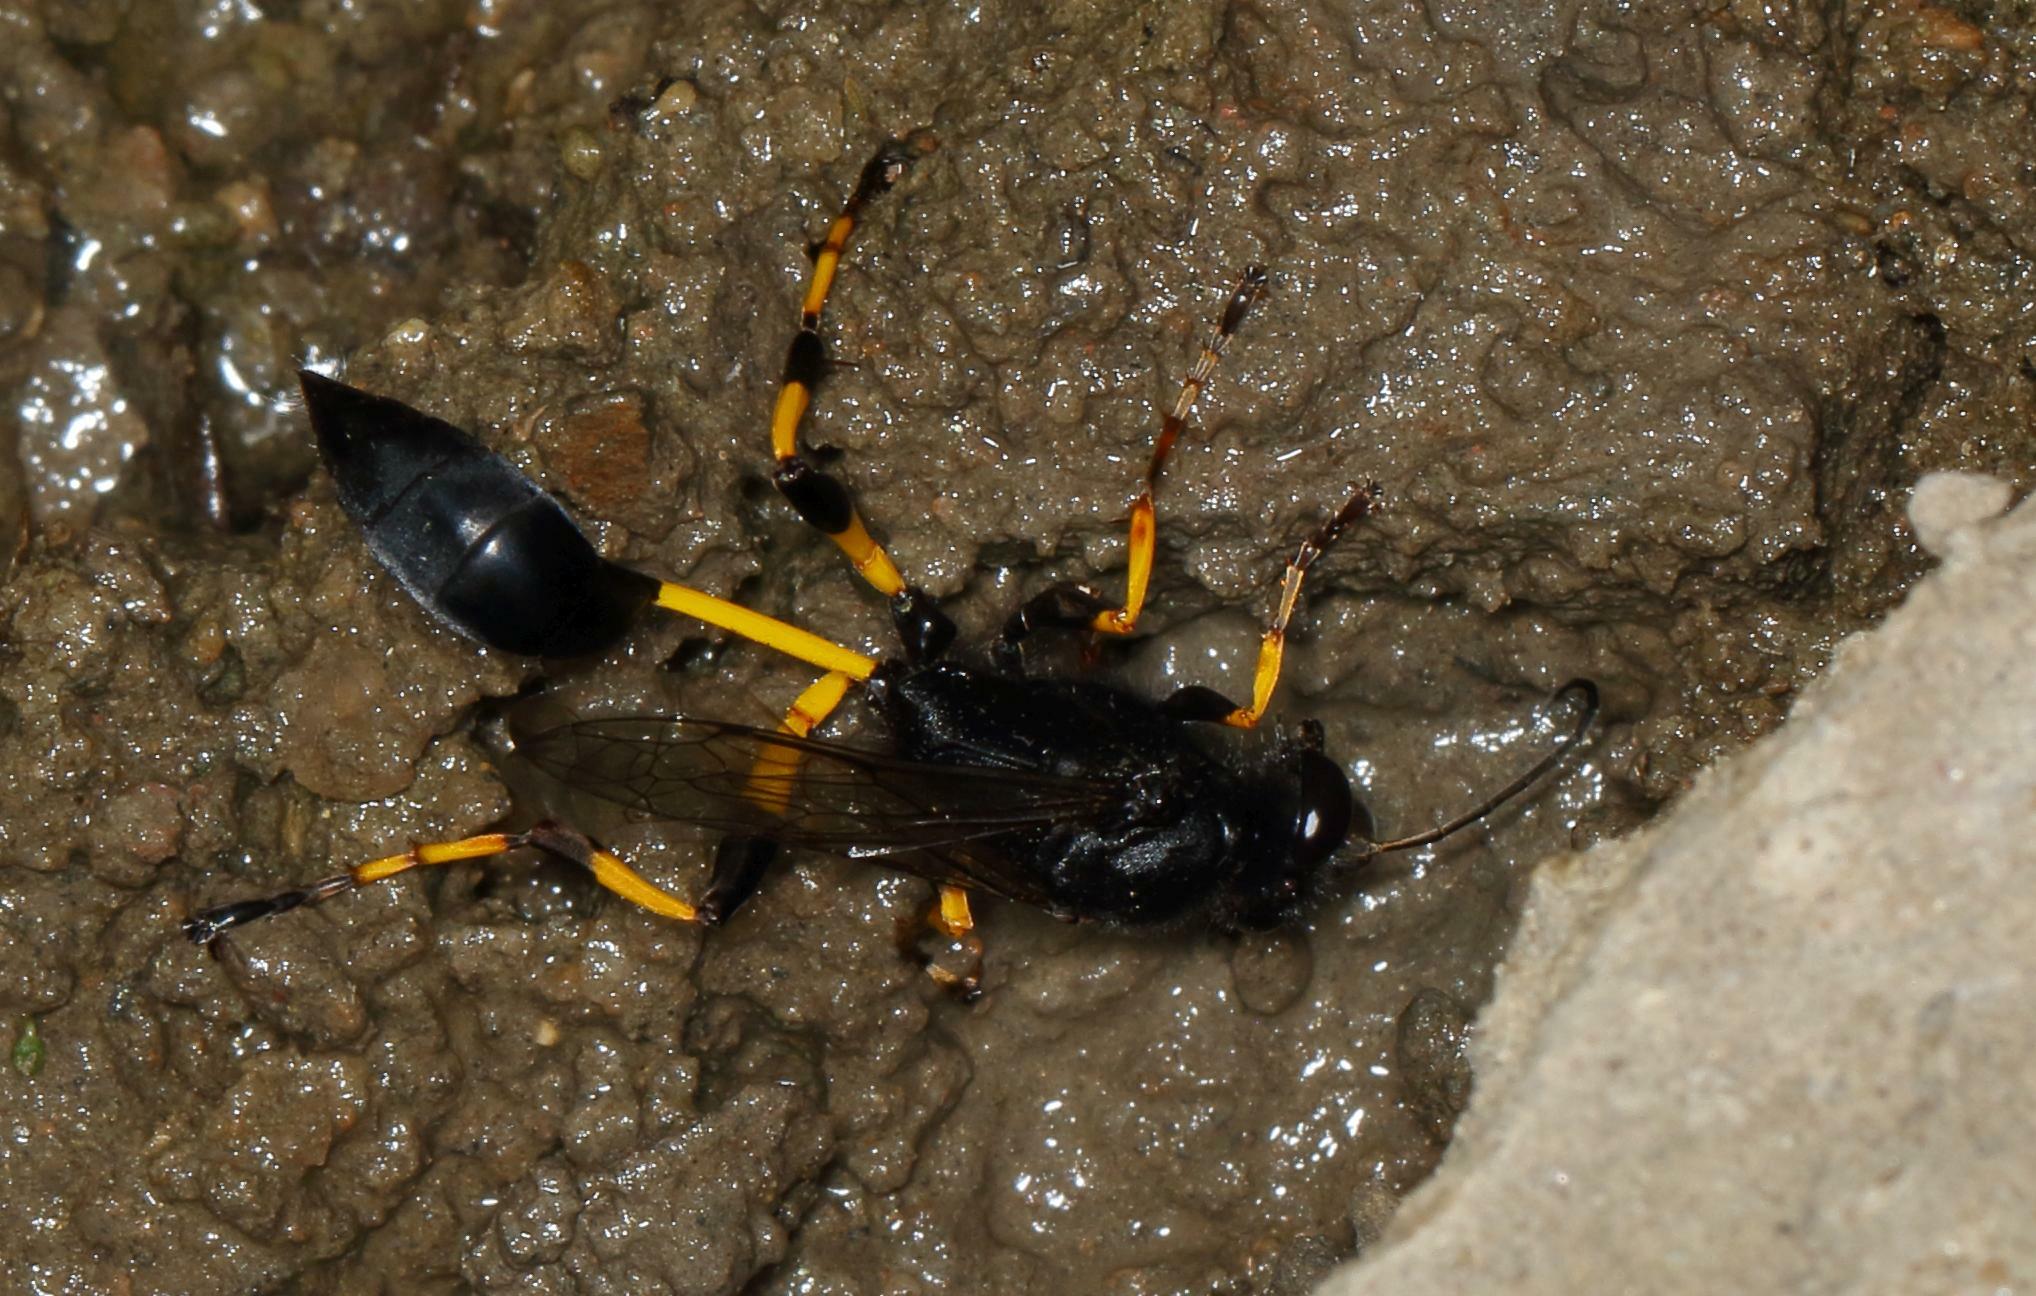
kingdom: Animalia
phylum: Arthropoda
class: Insecta
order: Hymenoptera
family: Sphecidae
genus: Sceliphron
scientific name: Sceliphron spirifex
